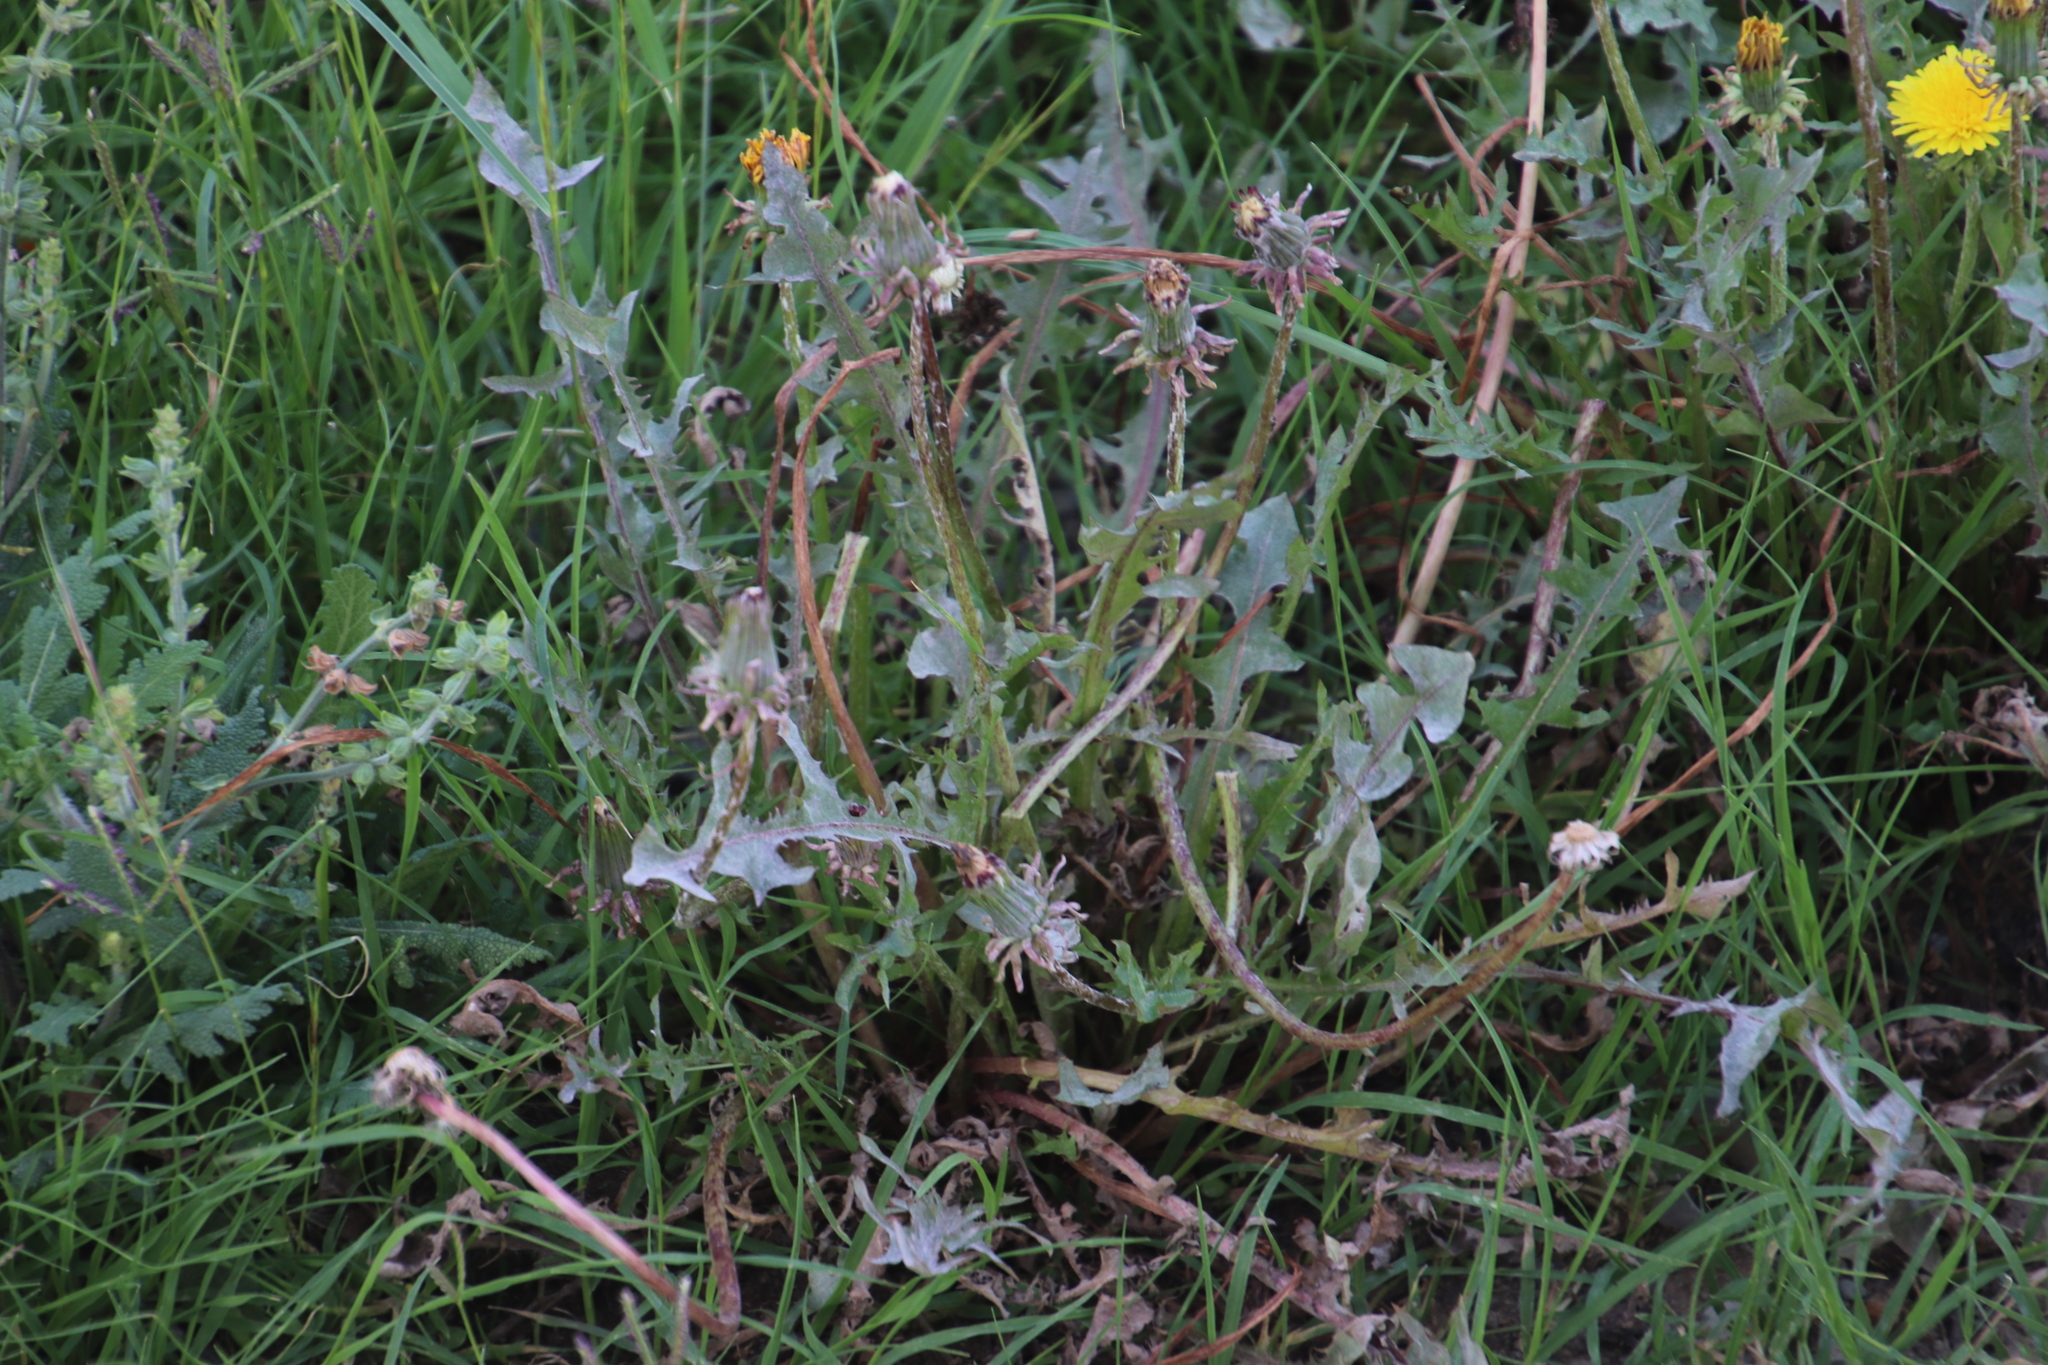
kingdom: Plantae
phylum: Tracheophyta
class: Magnoliopsida
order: Asterales
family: Asteraceae
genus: Taraxacum
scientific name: Taraxacum officinale
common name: Common dandelion
